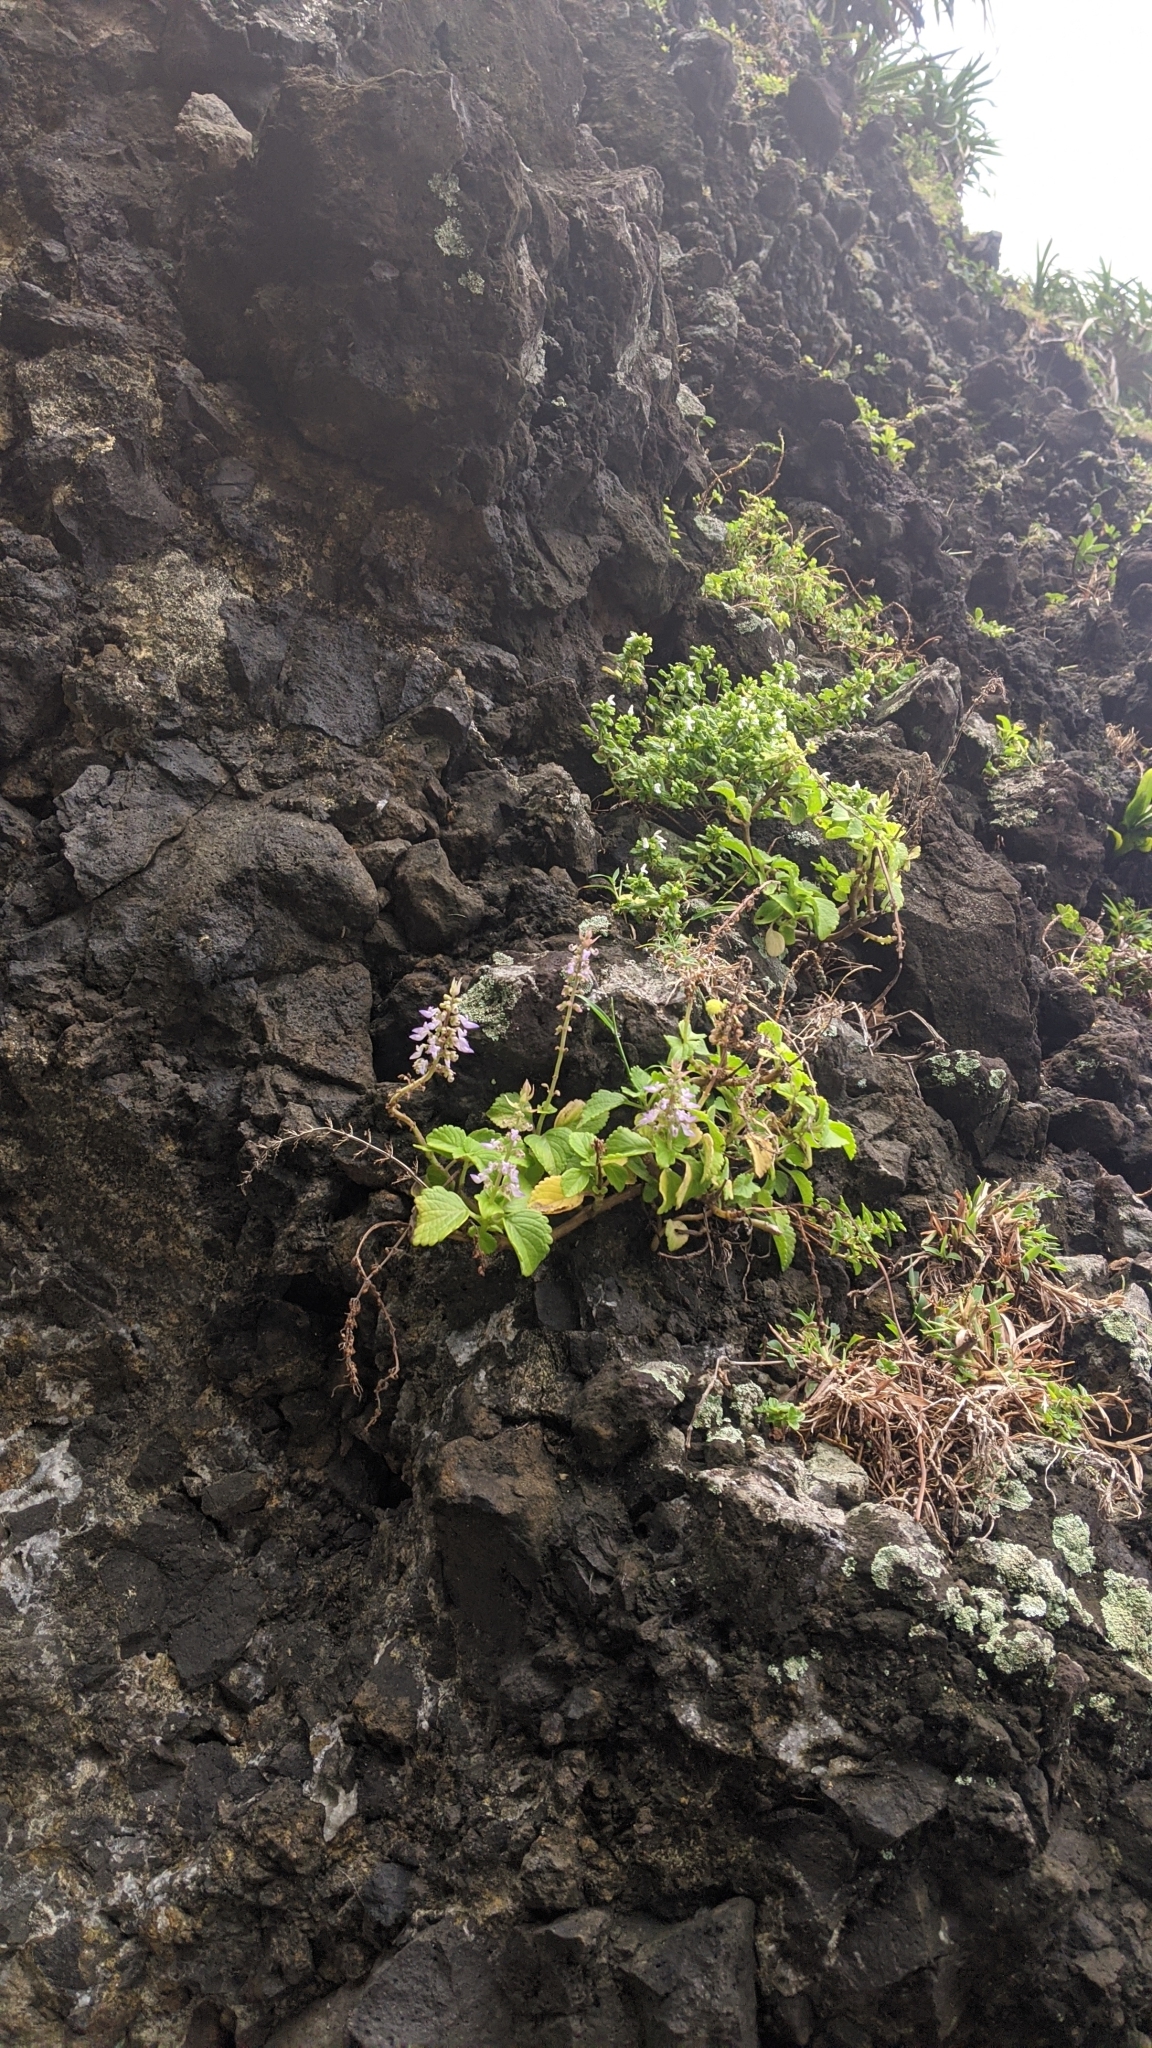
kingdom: Plantae
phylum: Tracheophyta
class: Magnoliopsida
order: Lamiales
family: Lamiaceae
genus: Coleus
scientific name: Coleus scutellarioides
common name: Coleus
